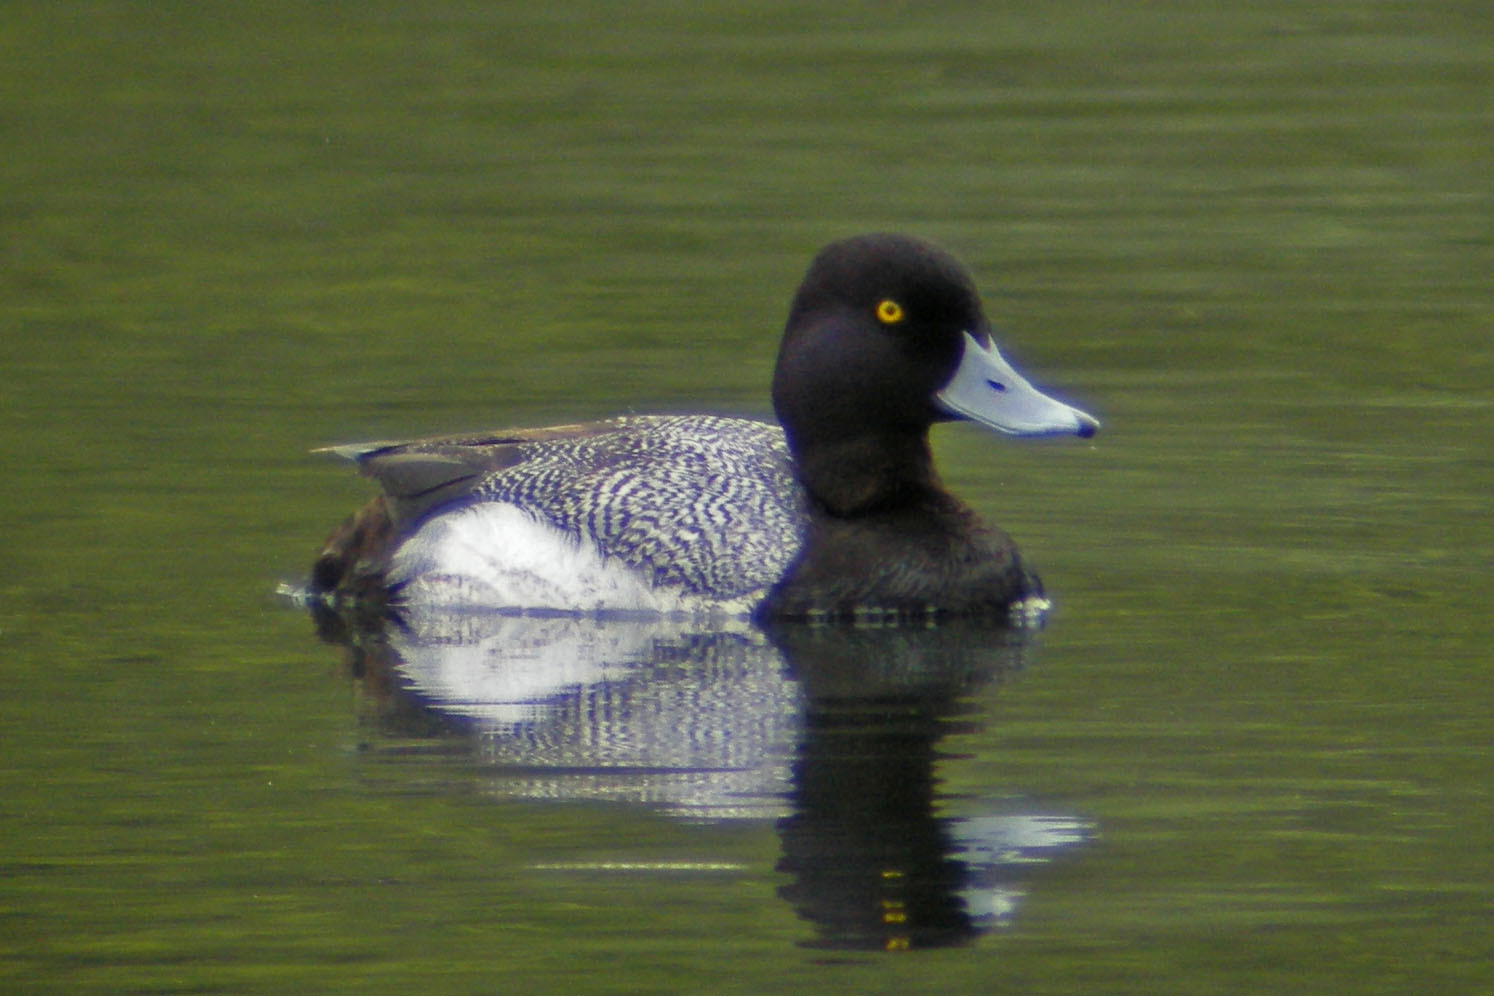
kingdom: Animalia
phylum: Chordata
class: Aves
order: Anseriformes
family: Anatidae
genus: Aythya
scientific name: Aythya affinis
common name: Lesser scaup
